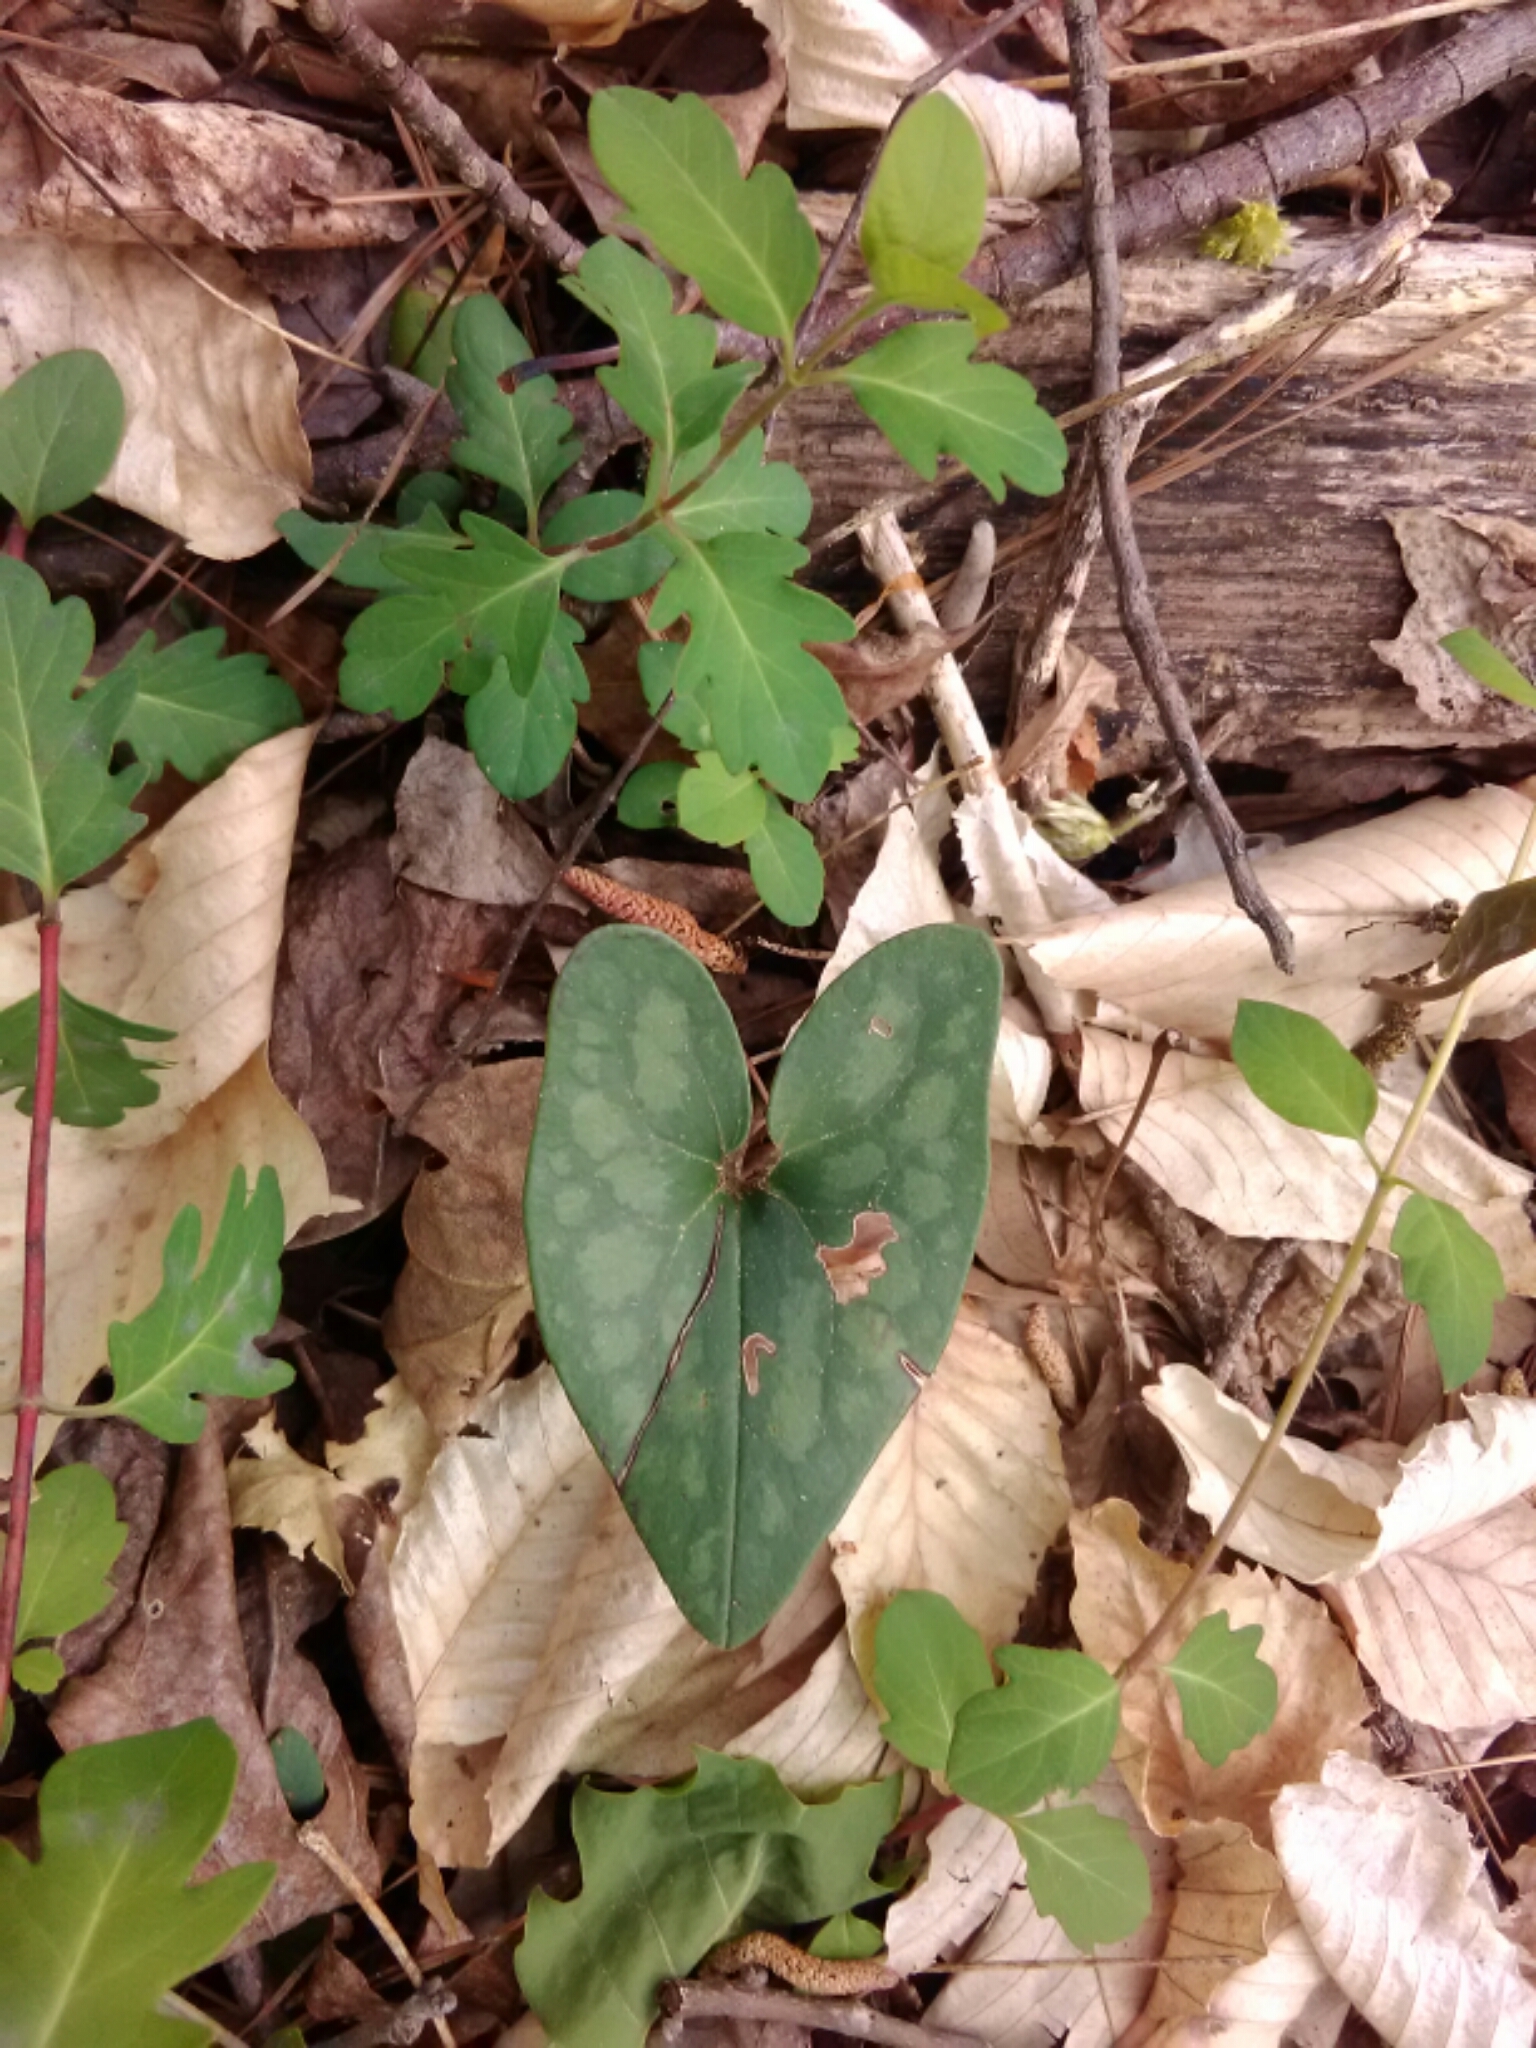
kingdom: Plantae
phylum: Tracheophyta
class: Magnoliopsida
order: Piperales
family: Aristolochiaceae
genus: Hexastylis
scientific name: Hexastylis arifolia
